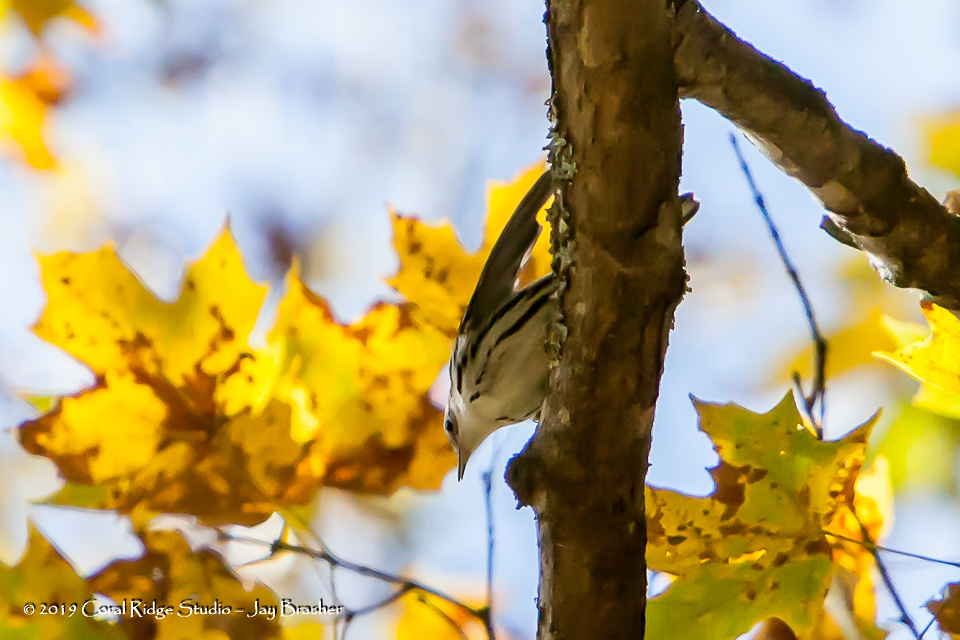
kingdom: Animalia
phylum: Chordata
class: Aves
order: Passeriformes
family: Parulidae
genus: Mniotilta
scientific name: Mniotilta varia
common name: Black-and-white warbler
